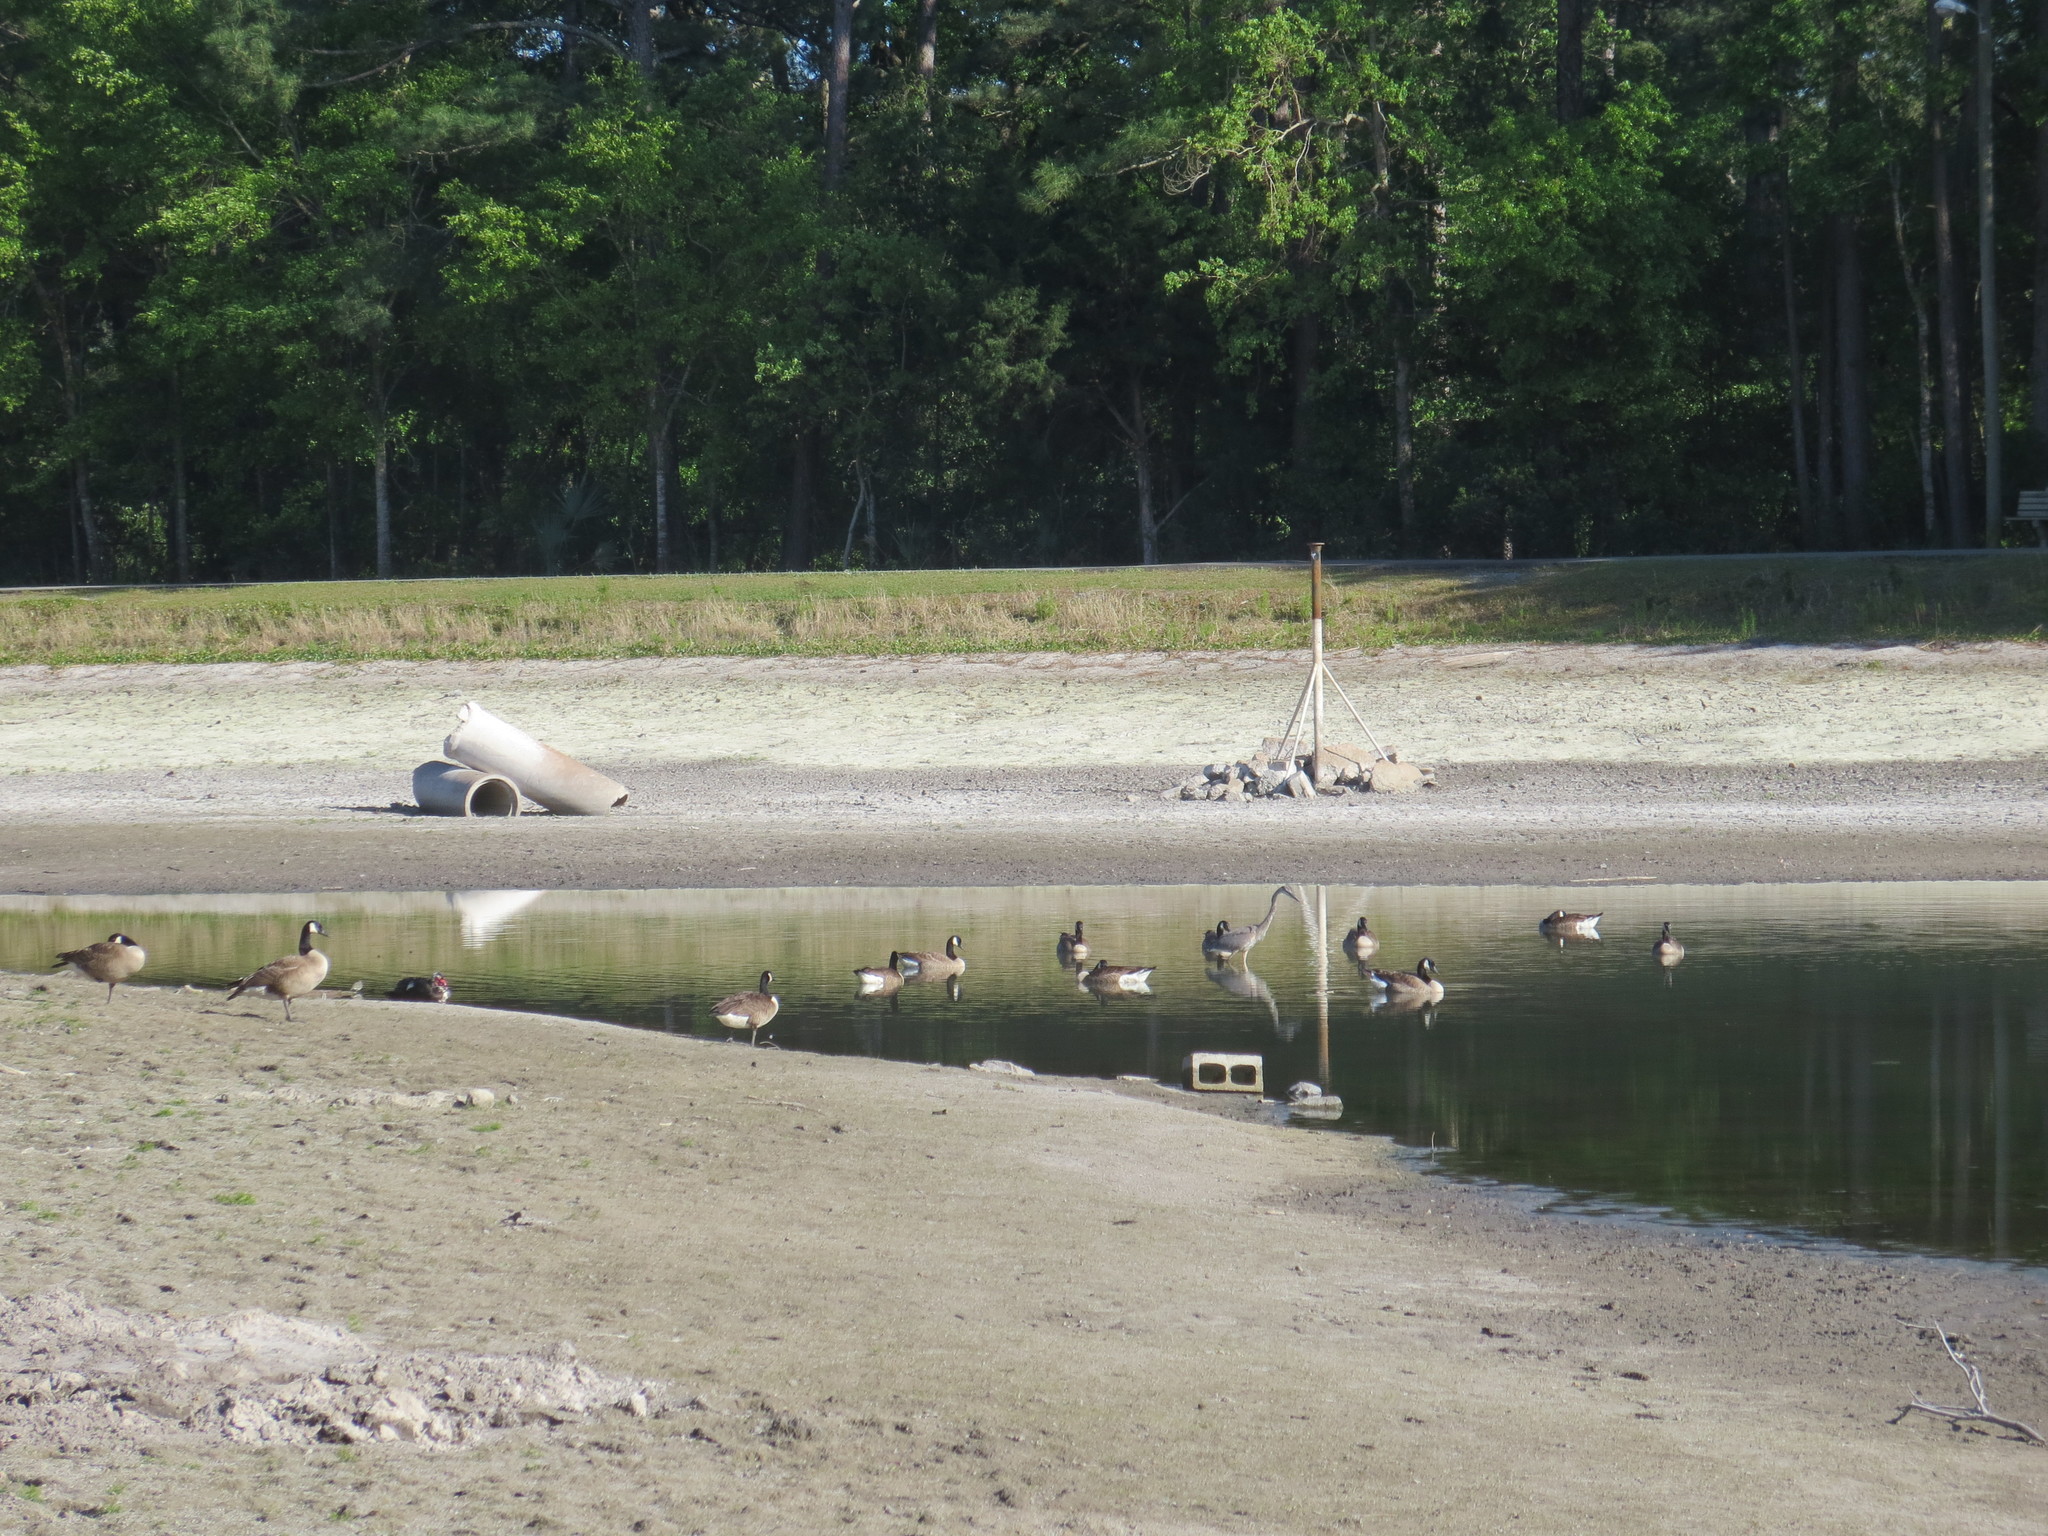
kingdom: Animalia
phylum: Chordata
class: Aves
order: Anseriformes
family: Anatidae
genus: Branta
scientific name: Branta canadensis
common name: Canada goose
